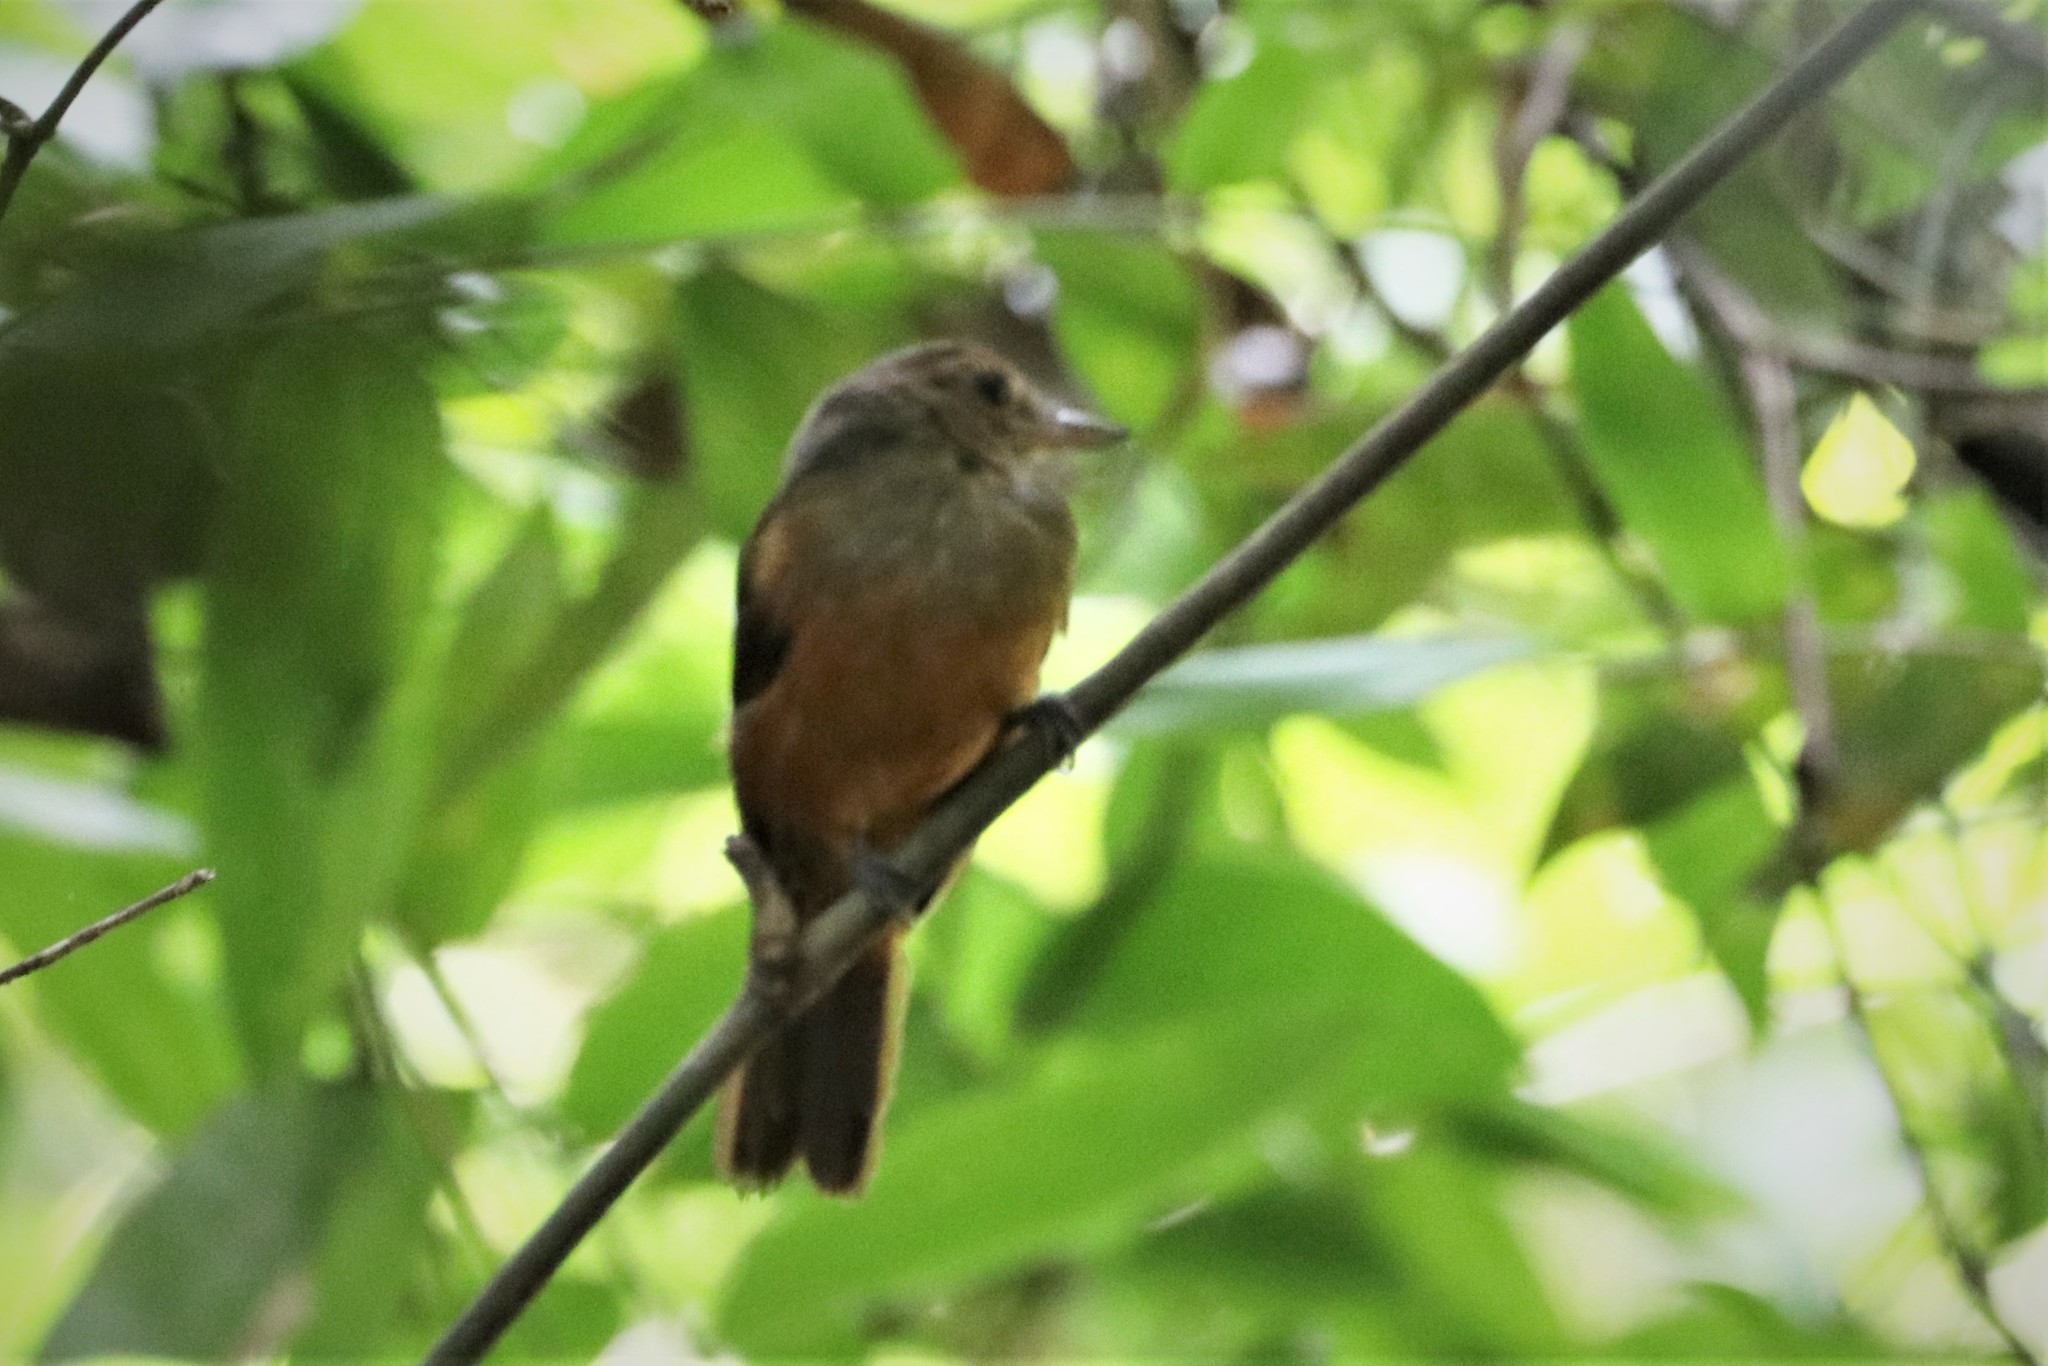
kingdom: Animalia
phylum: Chordata
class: Aves
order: Passeriformes
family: Thamnophilidae
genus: Thamnomanes
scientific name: Thamnomanes caesius
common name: Cinereous antshrike
